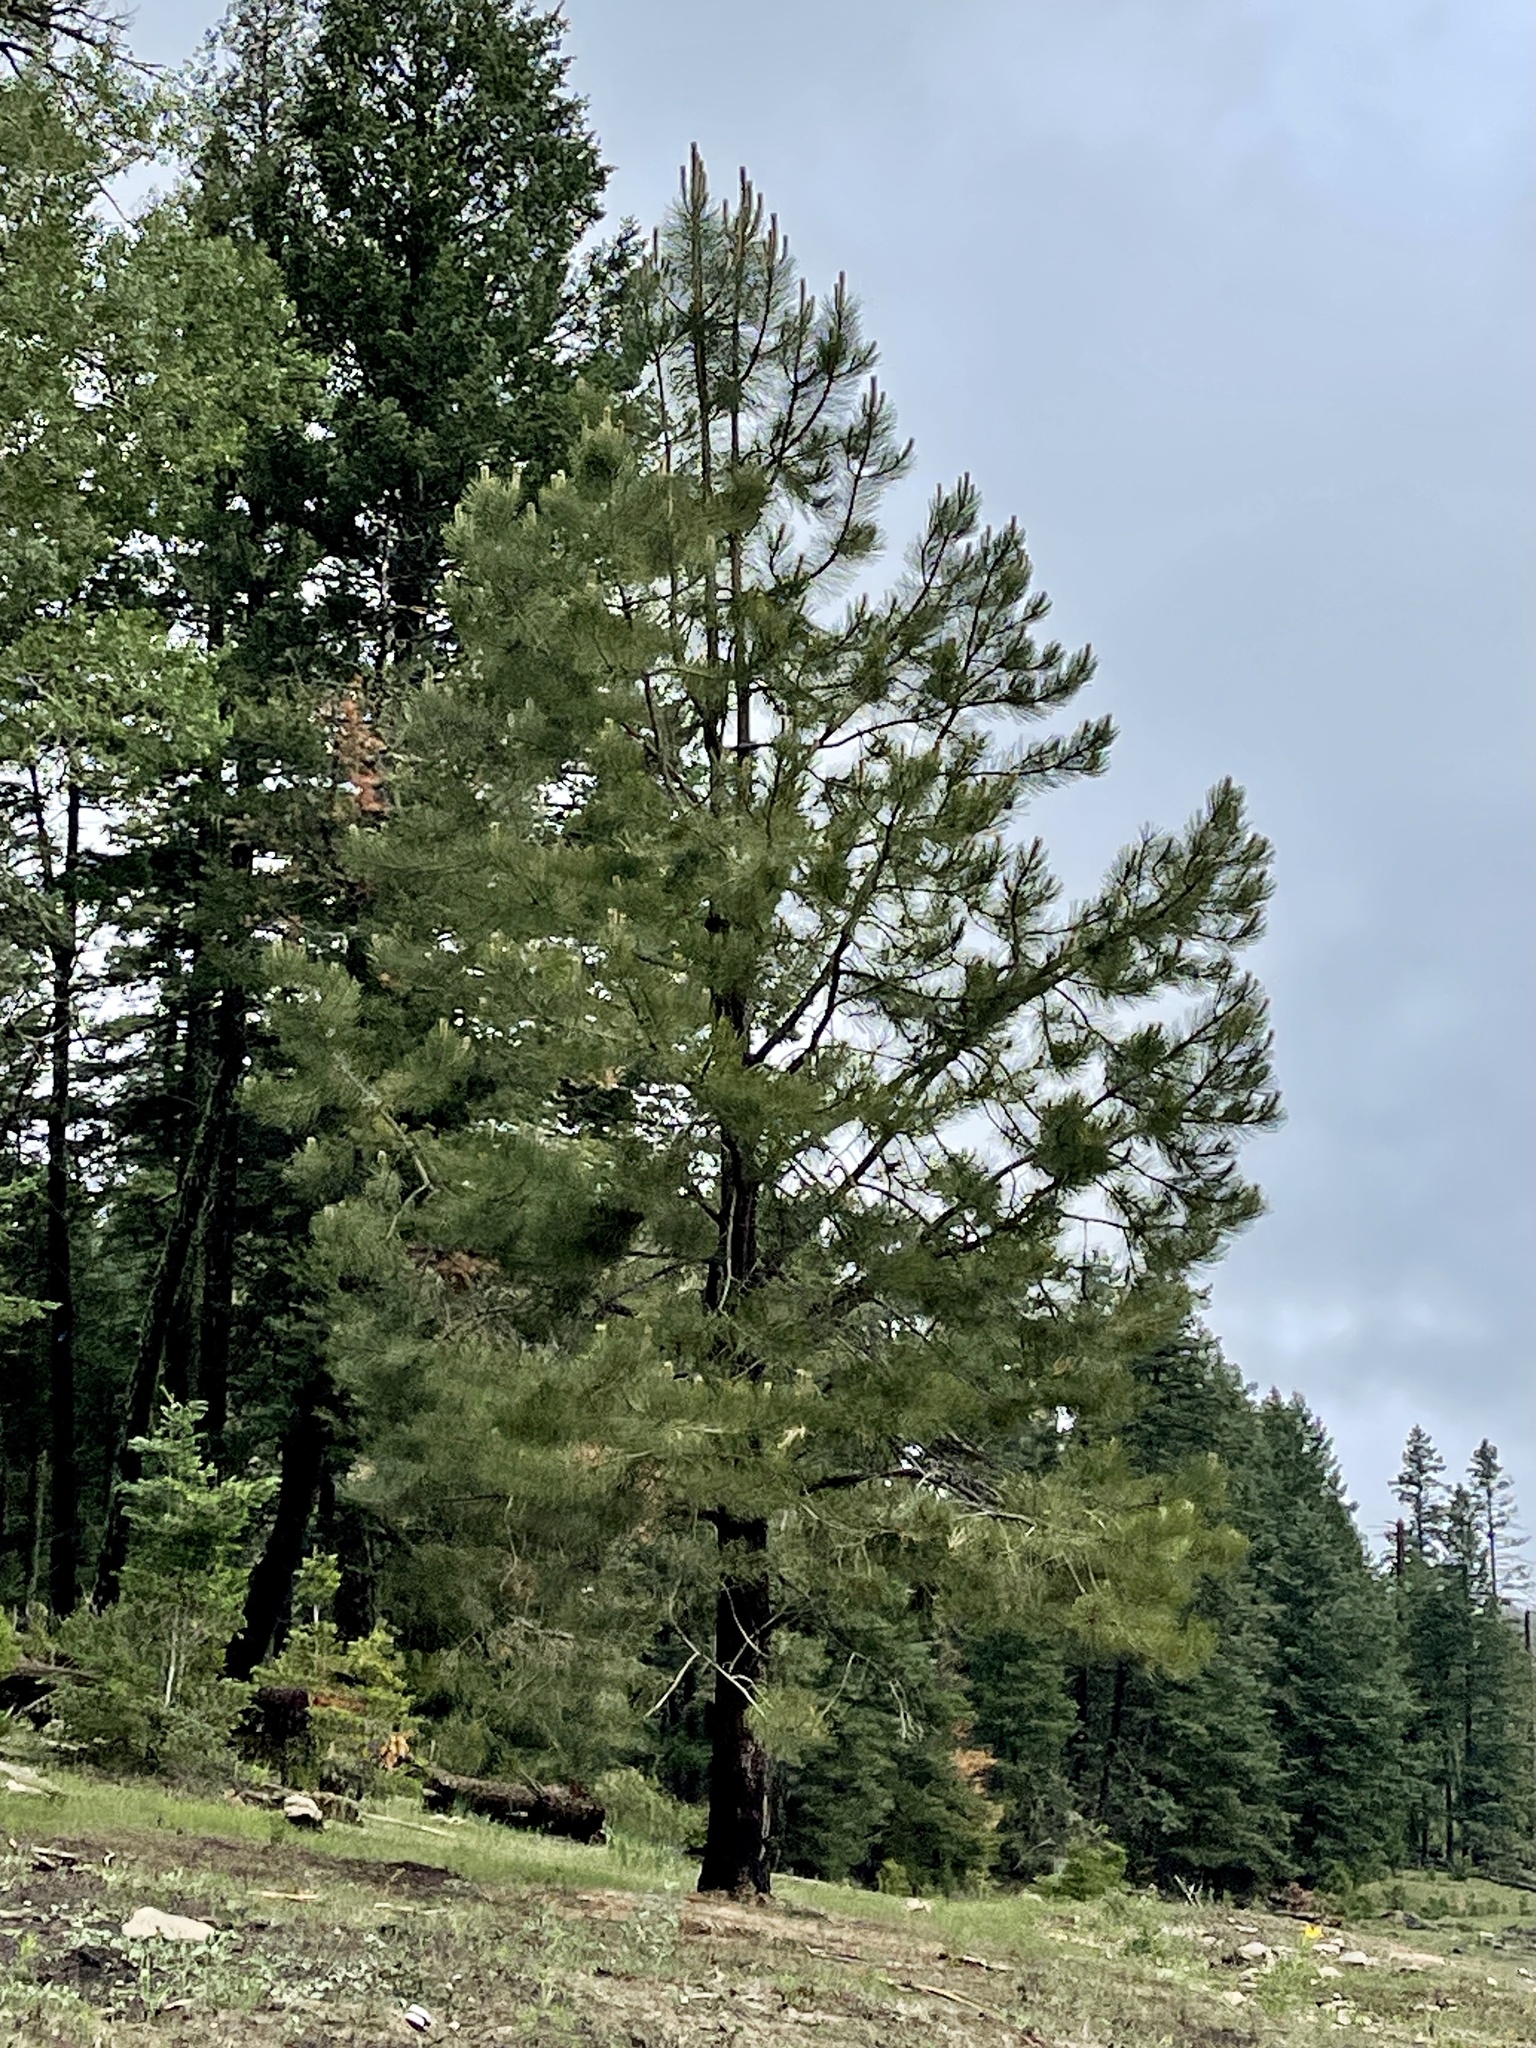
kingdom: Plantae
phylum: Tracheophyta
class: Pinopsida
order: Pinales
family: Pinaceae
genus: Pinus
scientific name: Pinus ponderosa
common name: Western yellow-pine
